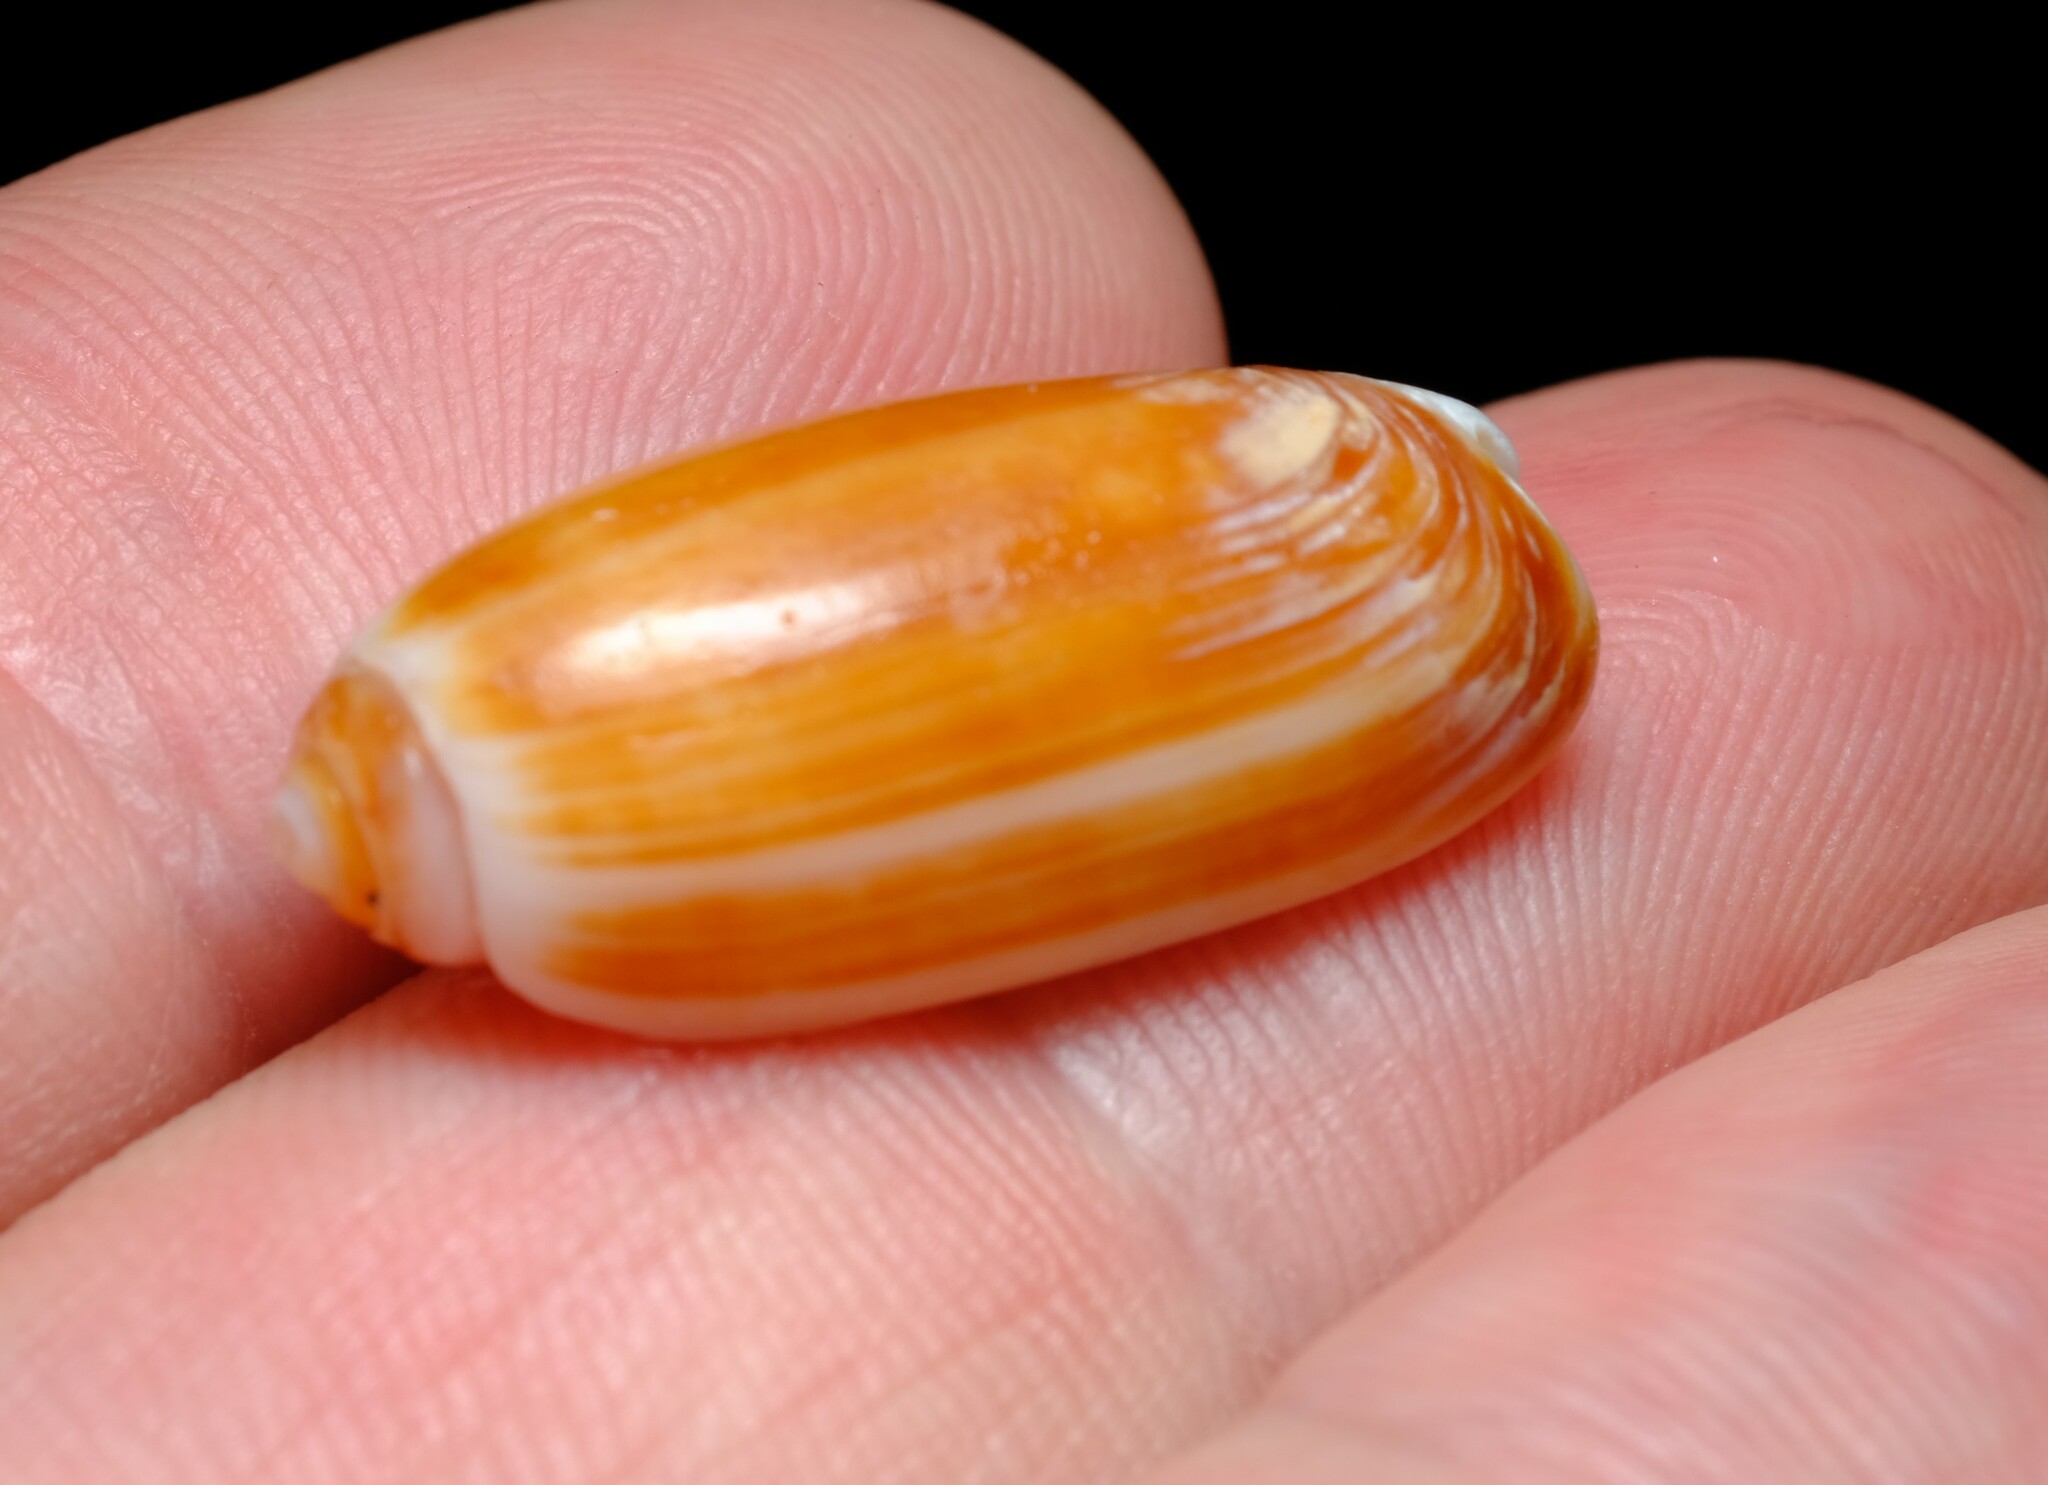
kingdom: Animalia
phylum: Mollusca
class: Gastropoda
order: Neogastropoda
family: Olividae
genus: Oliva
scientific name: Oliva australis
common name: Australian olive
